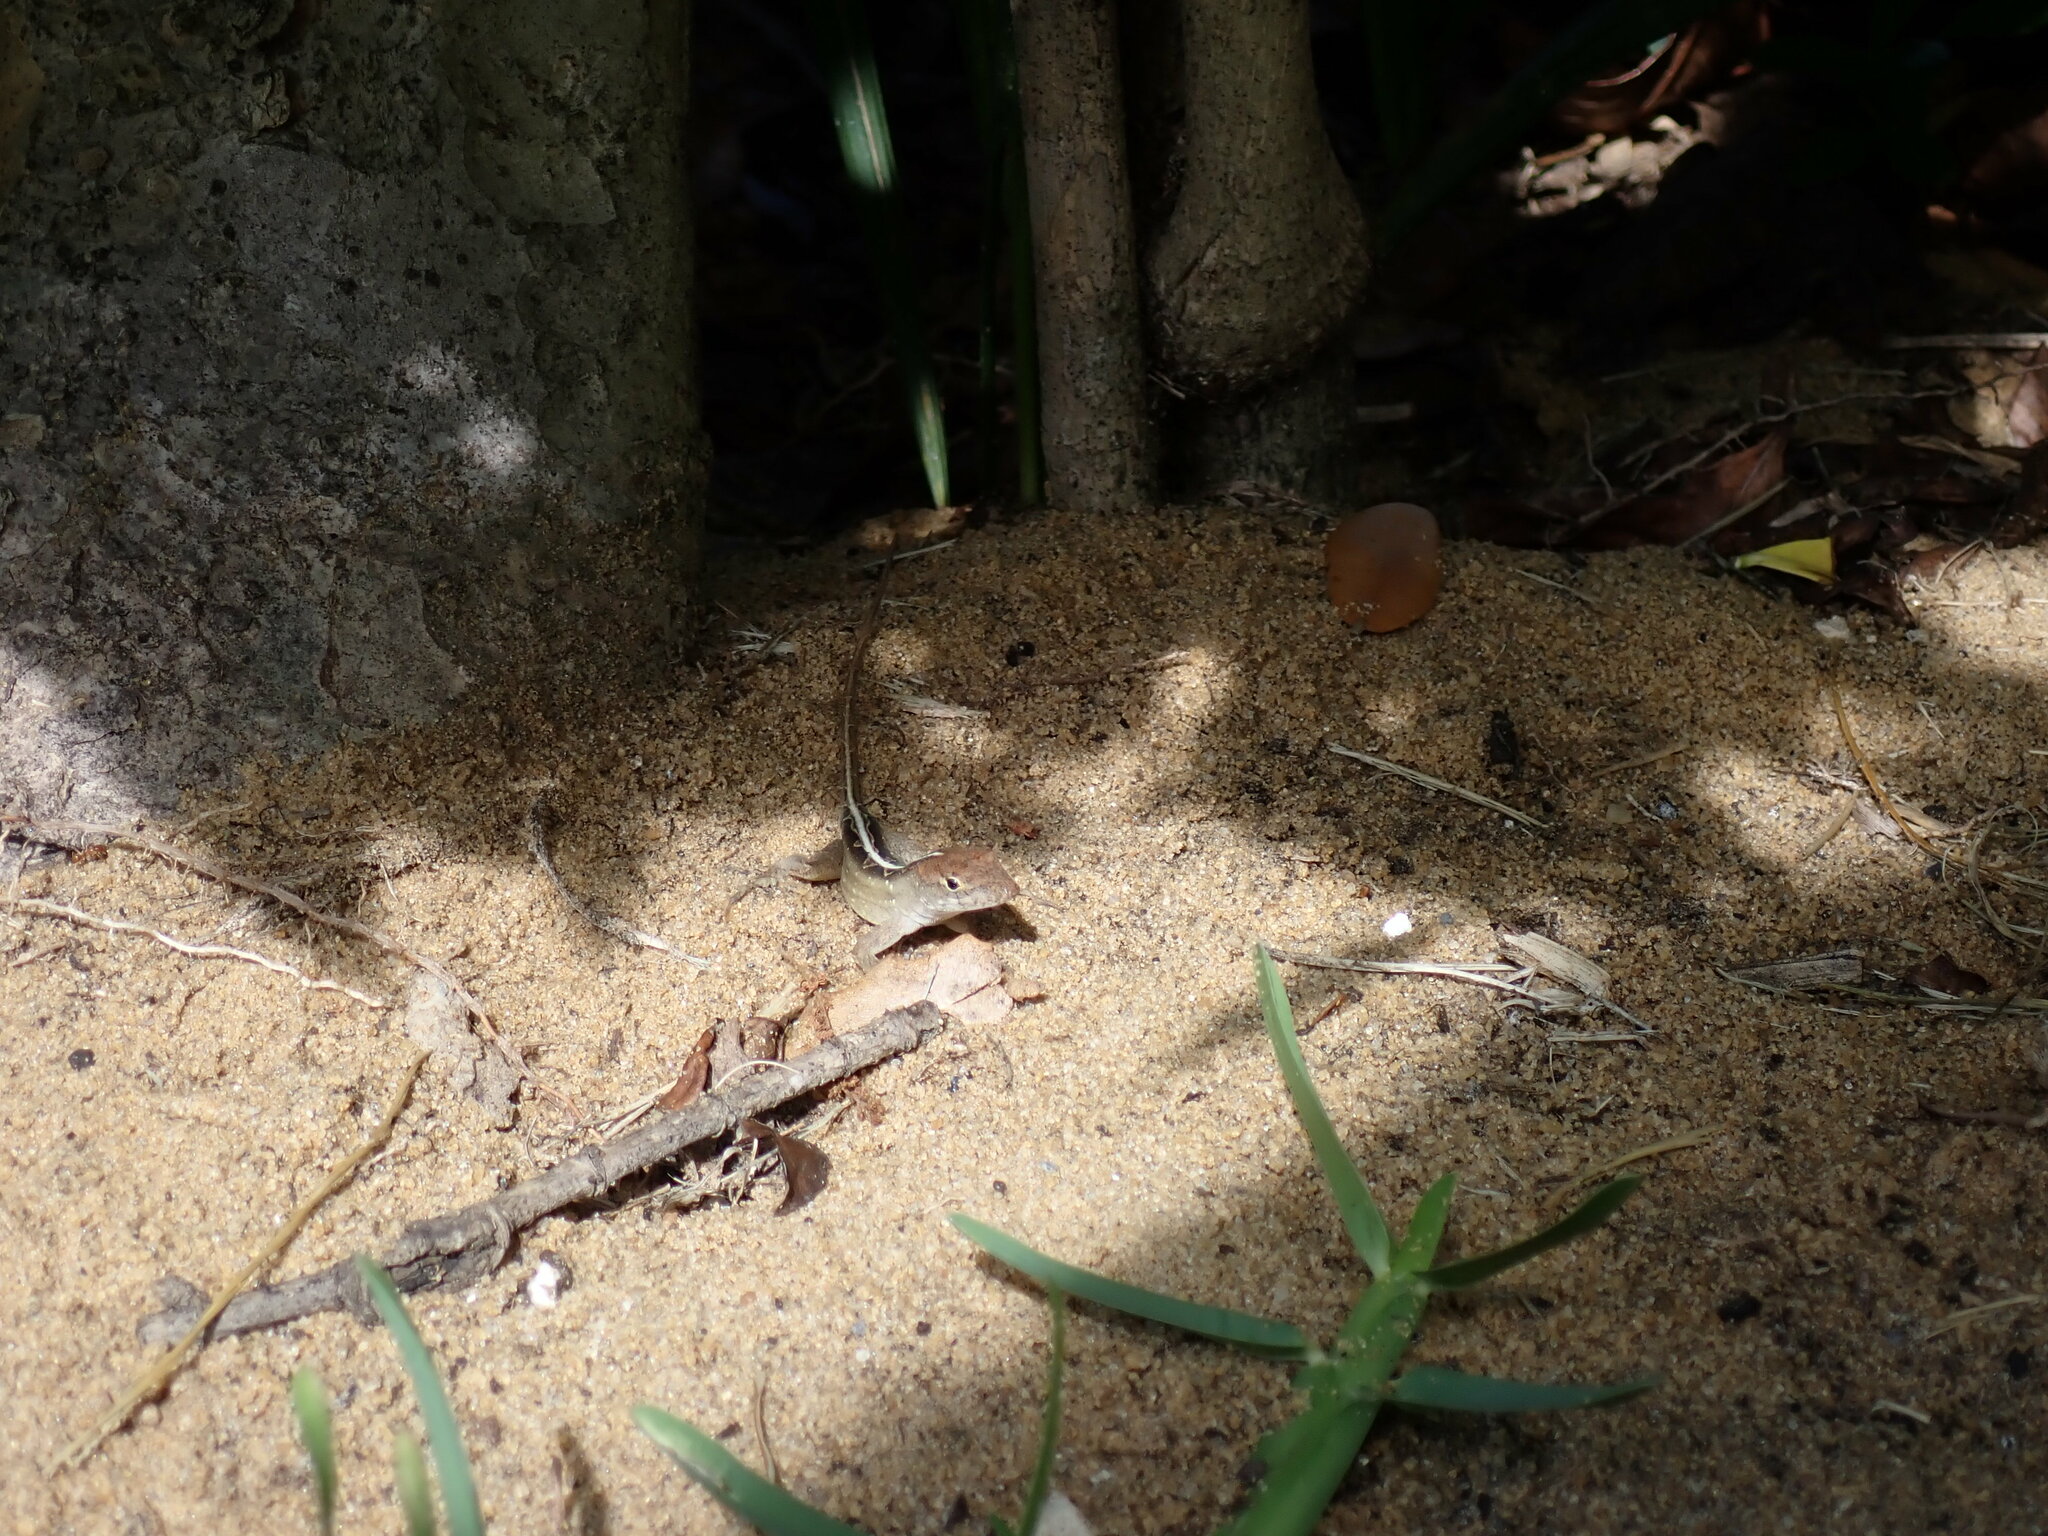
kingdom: Animalia
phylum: Chordata
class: Squamata
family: Dactyloidae
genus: Anolis
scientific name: Anolis sagrei
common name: Brown anole
